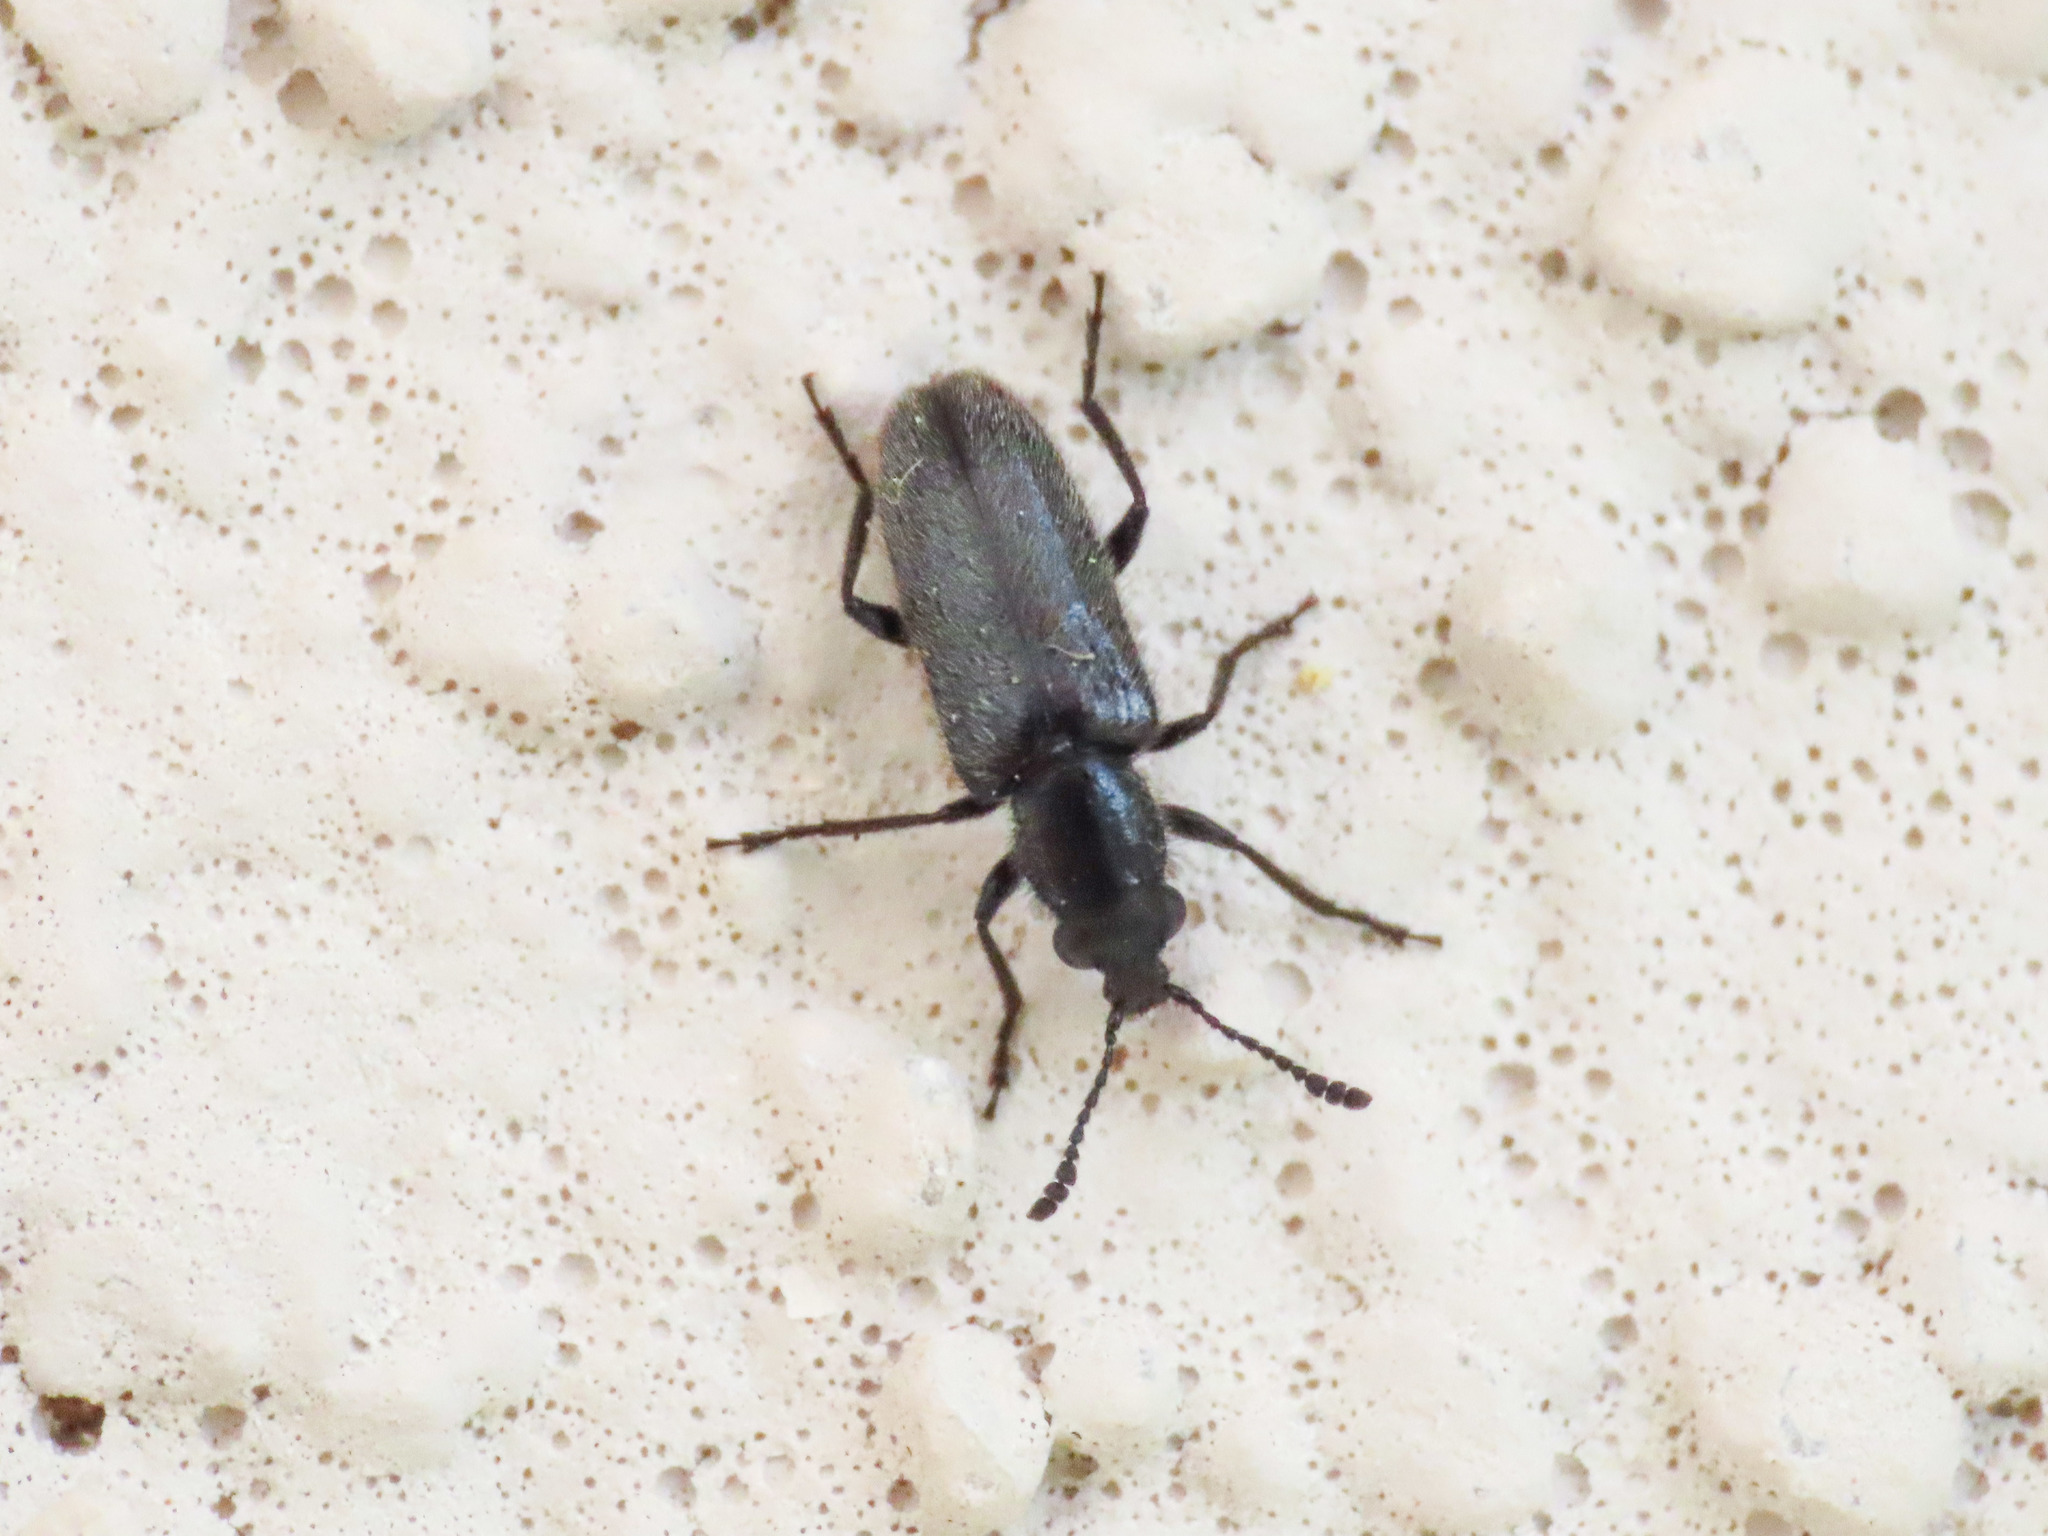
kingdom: Animalia
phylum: Arthropoda
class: Insecta
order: Coleoptera
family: Nemonychidae
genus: Nemonyx
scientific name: Nemonyx lepturoides
